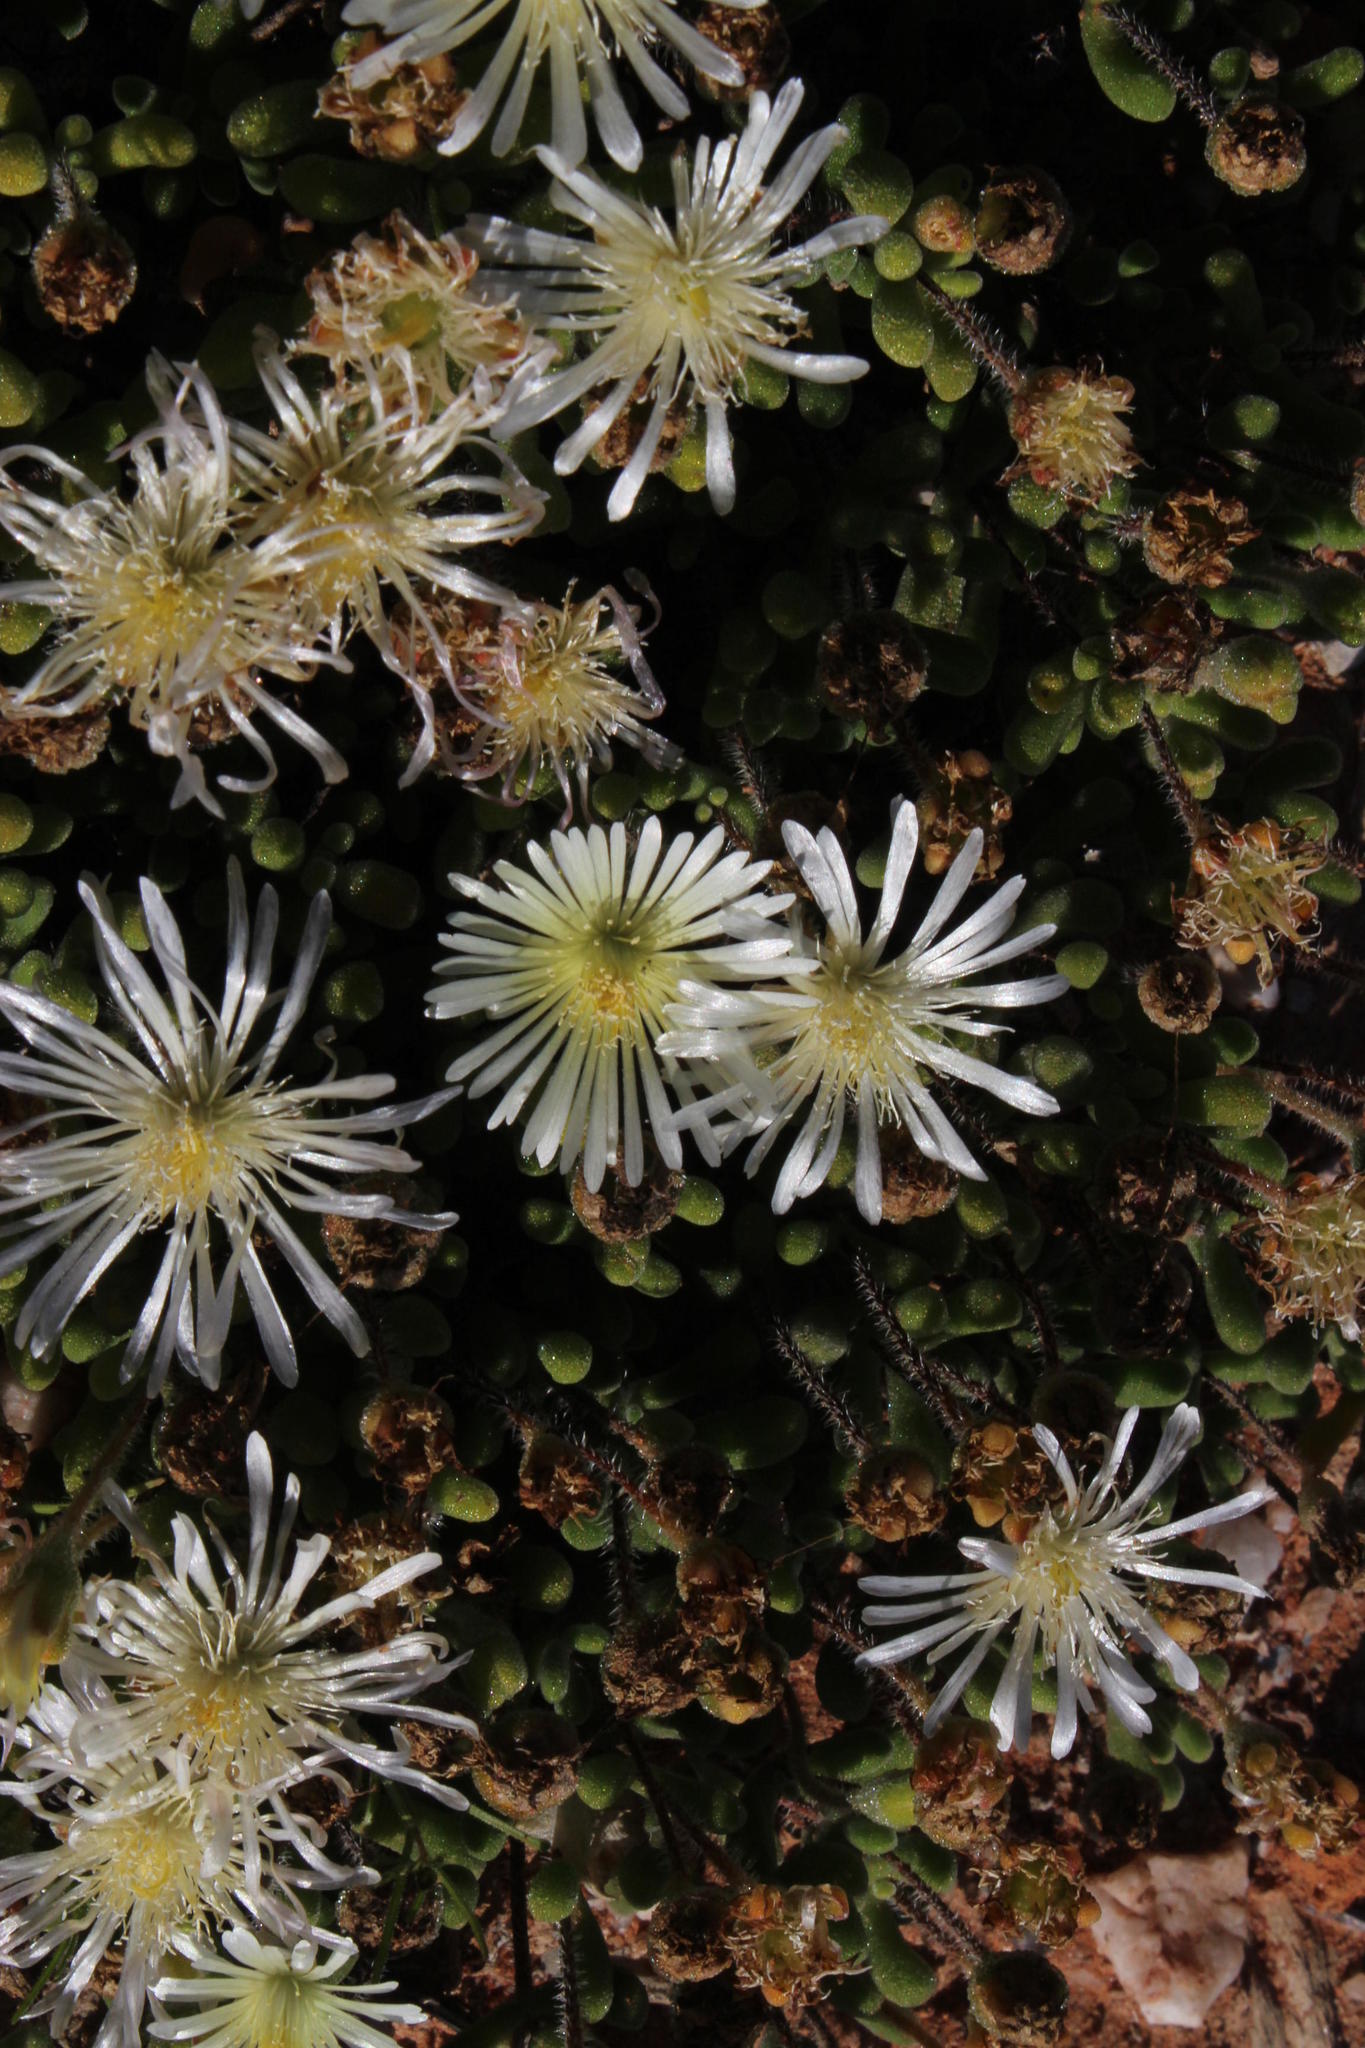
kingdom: Plantae
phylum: Tracheophyta
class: Magnoliopsida
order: Caryophyllales
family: Aizoaceae
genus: Drosanthemum
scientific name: Drosanthemum schoenlandianum
